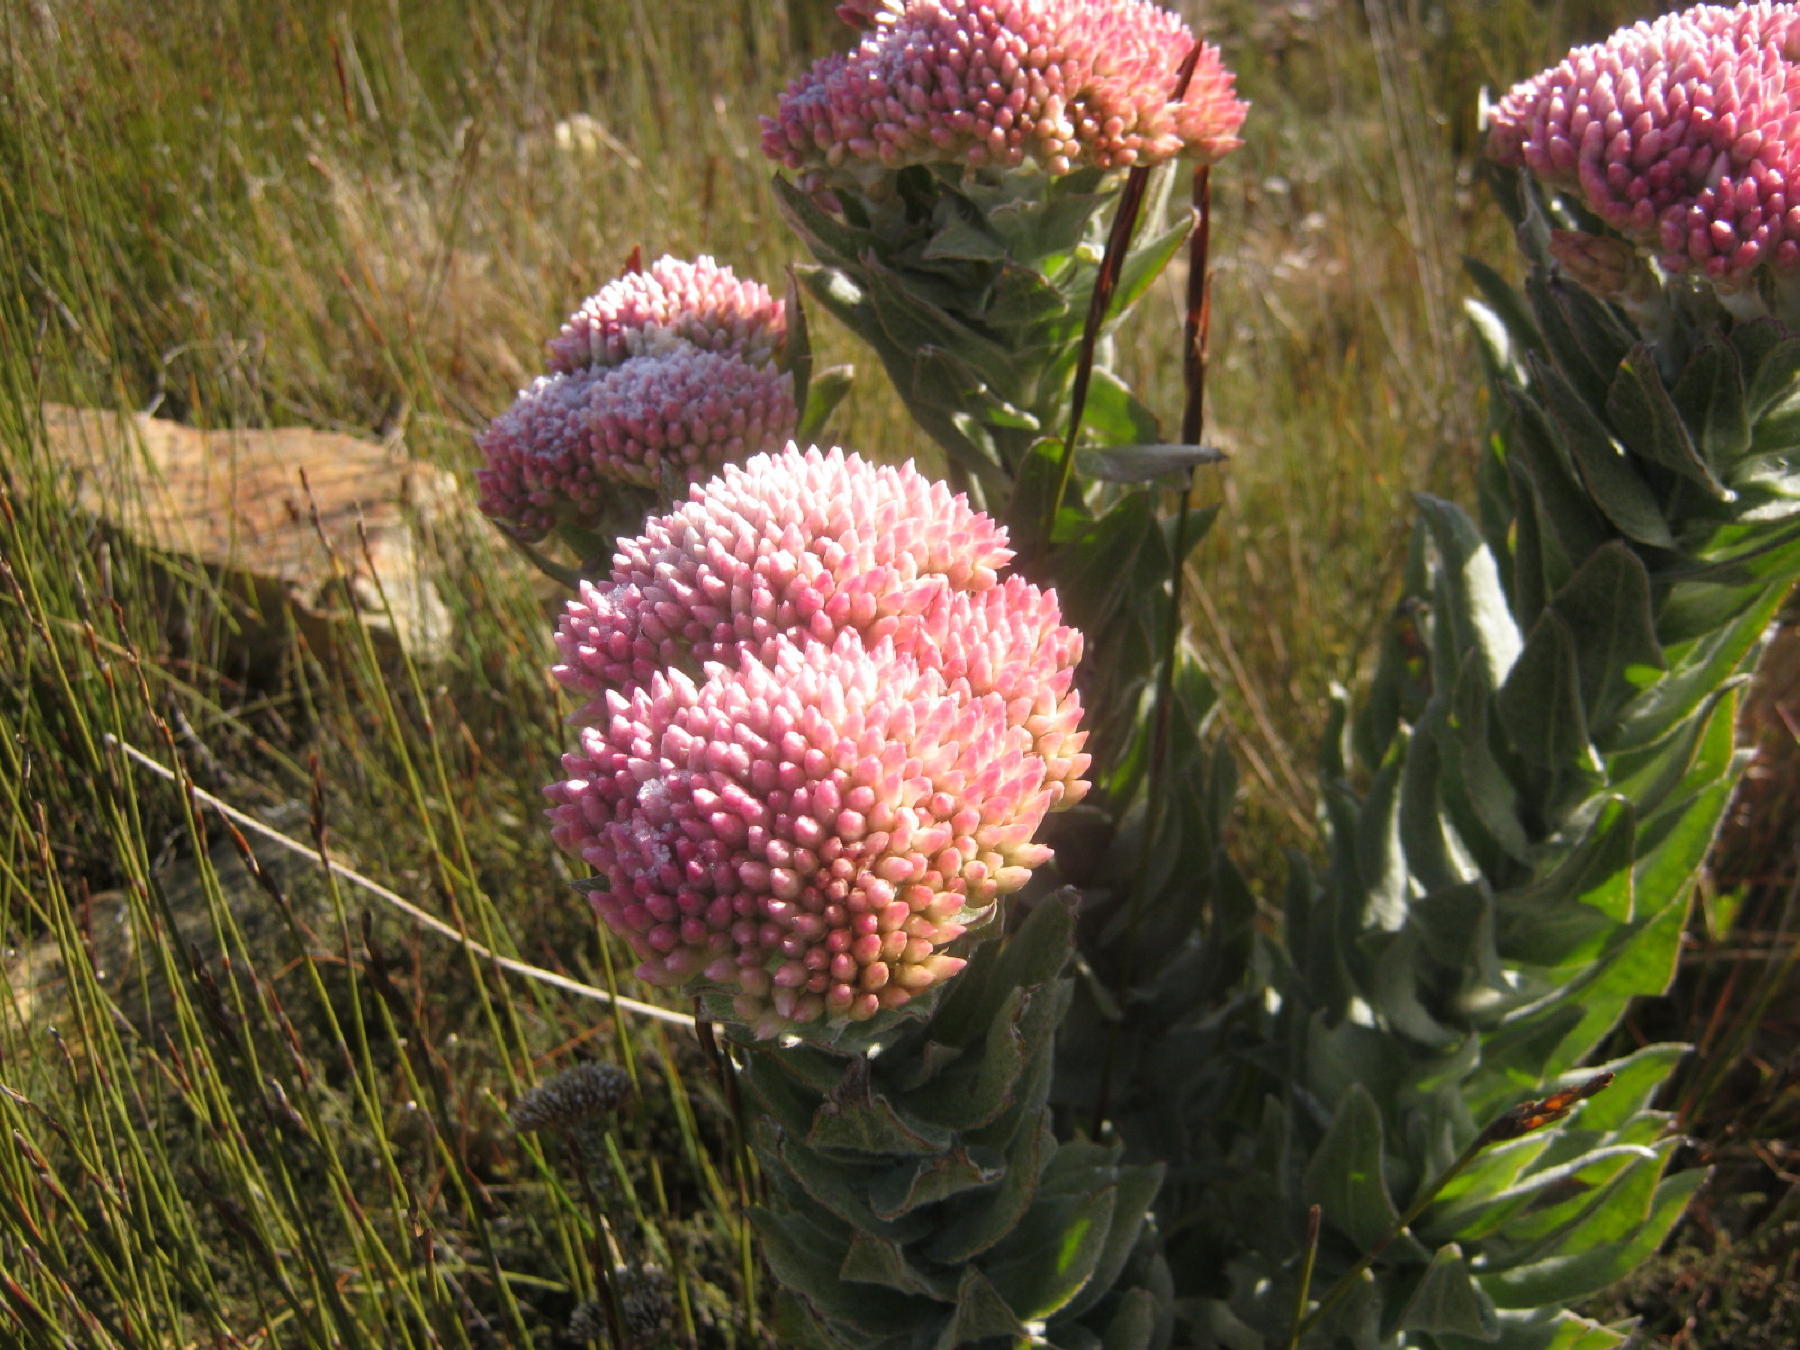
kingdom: Plantae
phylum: Tracheophyta
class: Magnoliopsida
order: Asterales
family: Asteraceae
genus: Syncarpha
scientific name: Syncarpha milleflora
